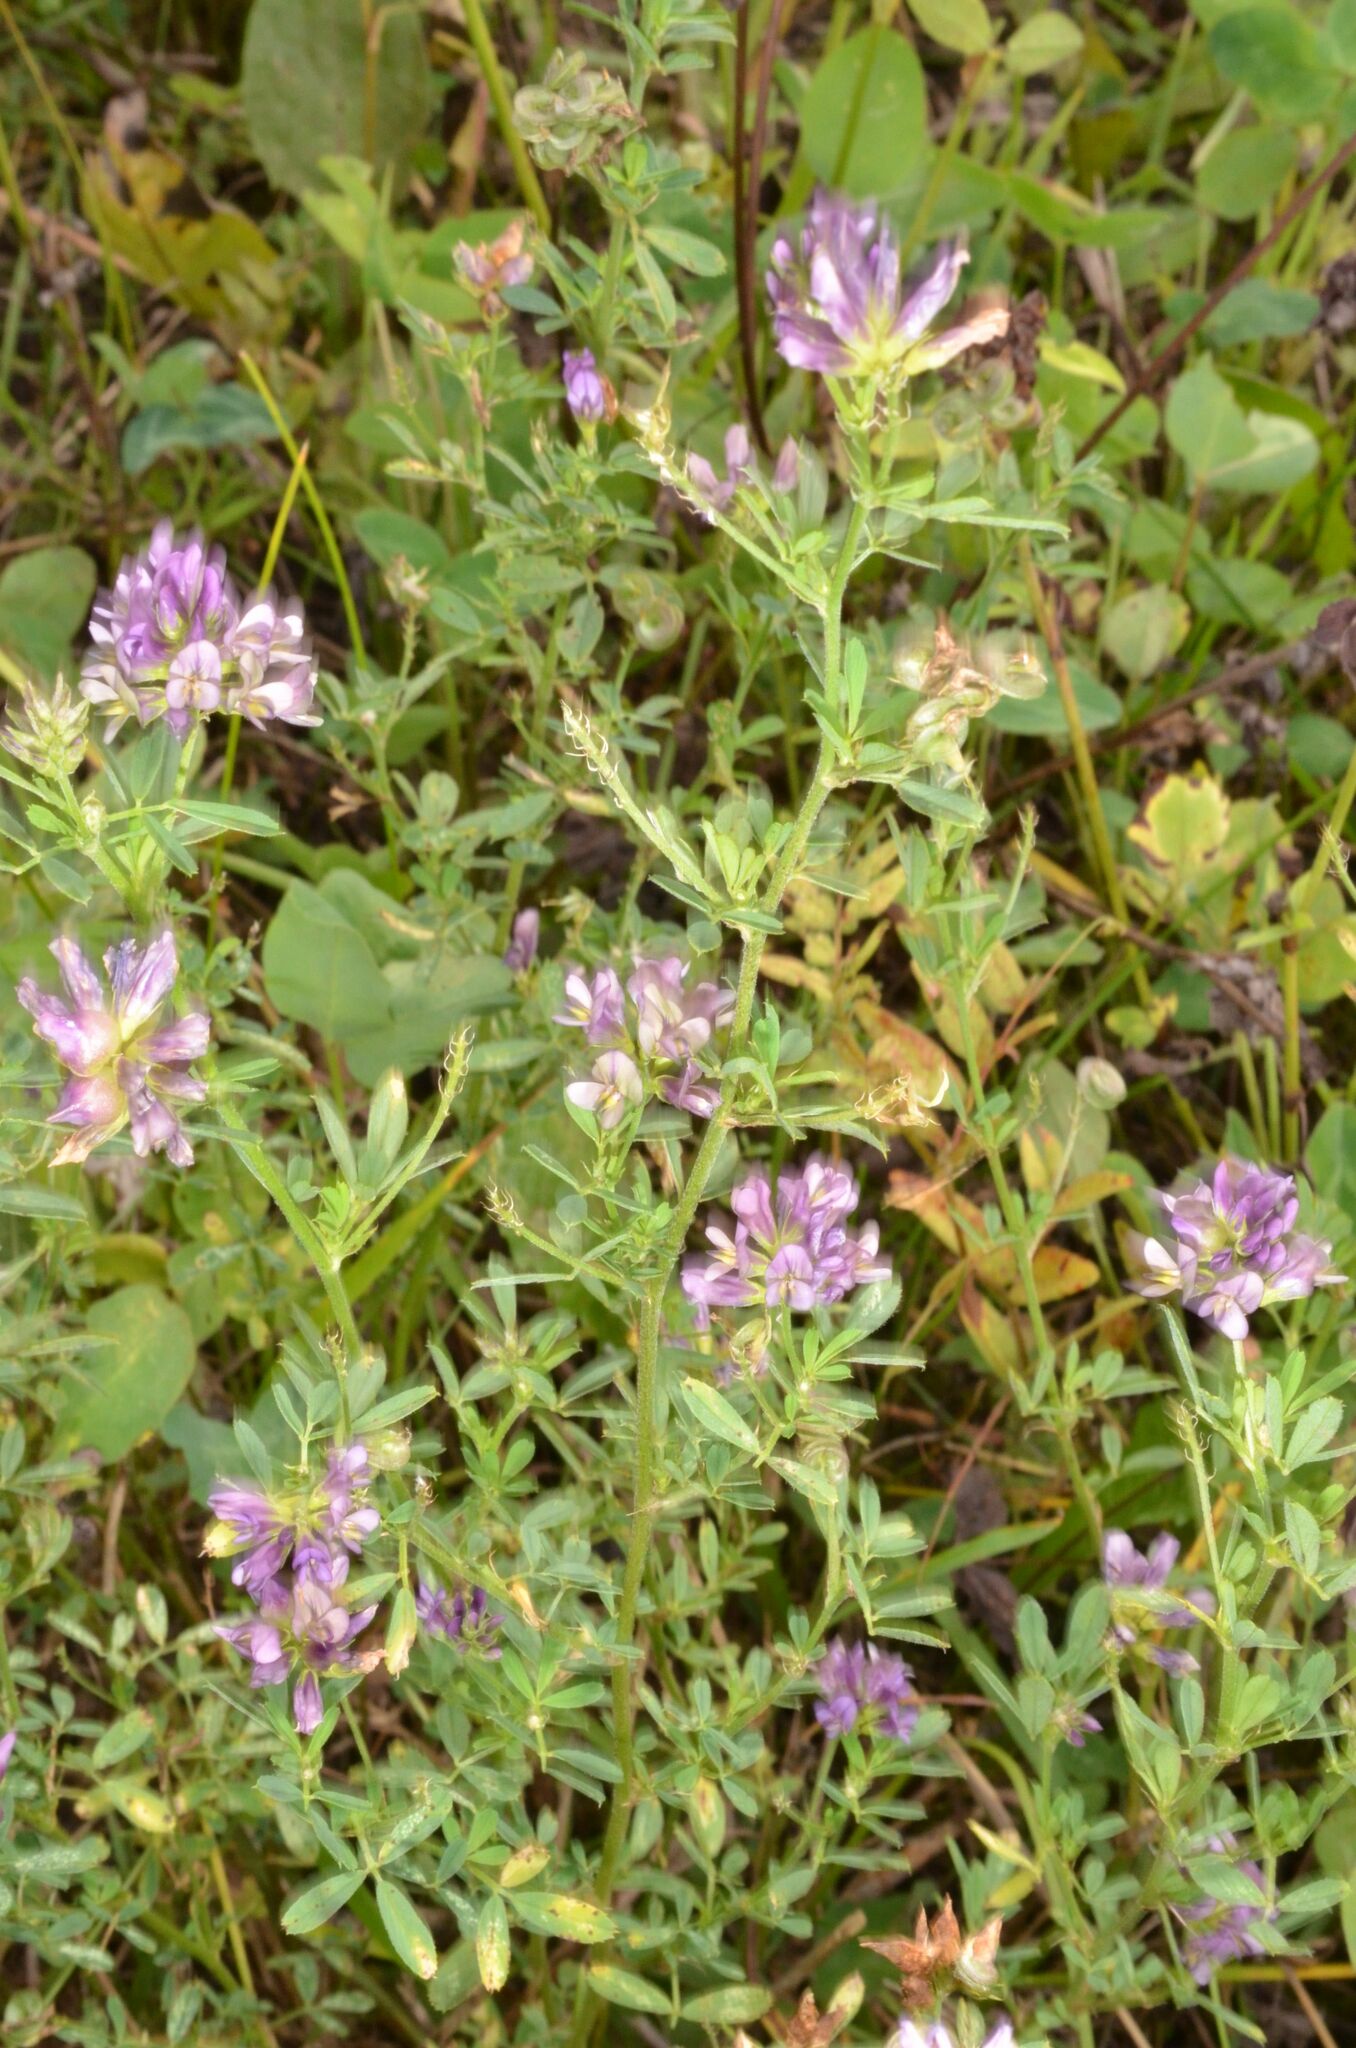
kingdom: Plantae
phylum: Tracheophyta
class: Magnoliopsida
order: Fabales
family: Fabaceae
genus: Medicago
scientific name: Medicago varia
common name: Sand lucerne
